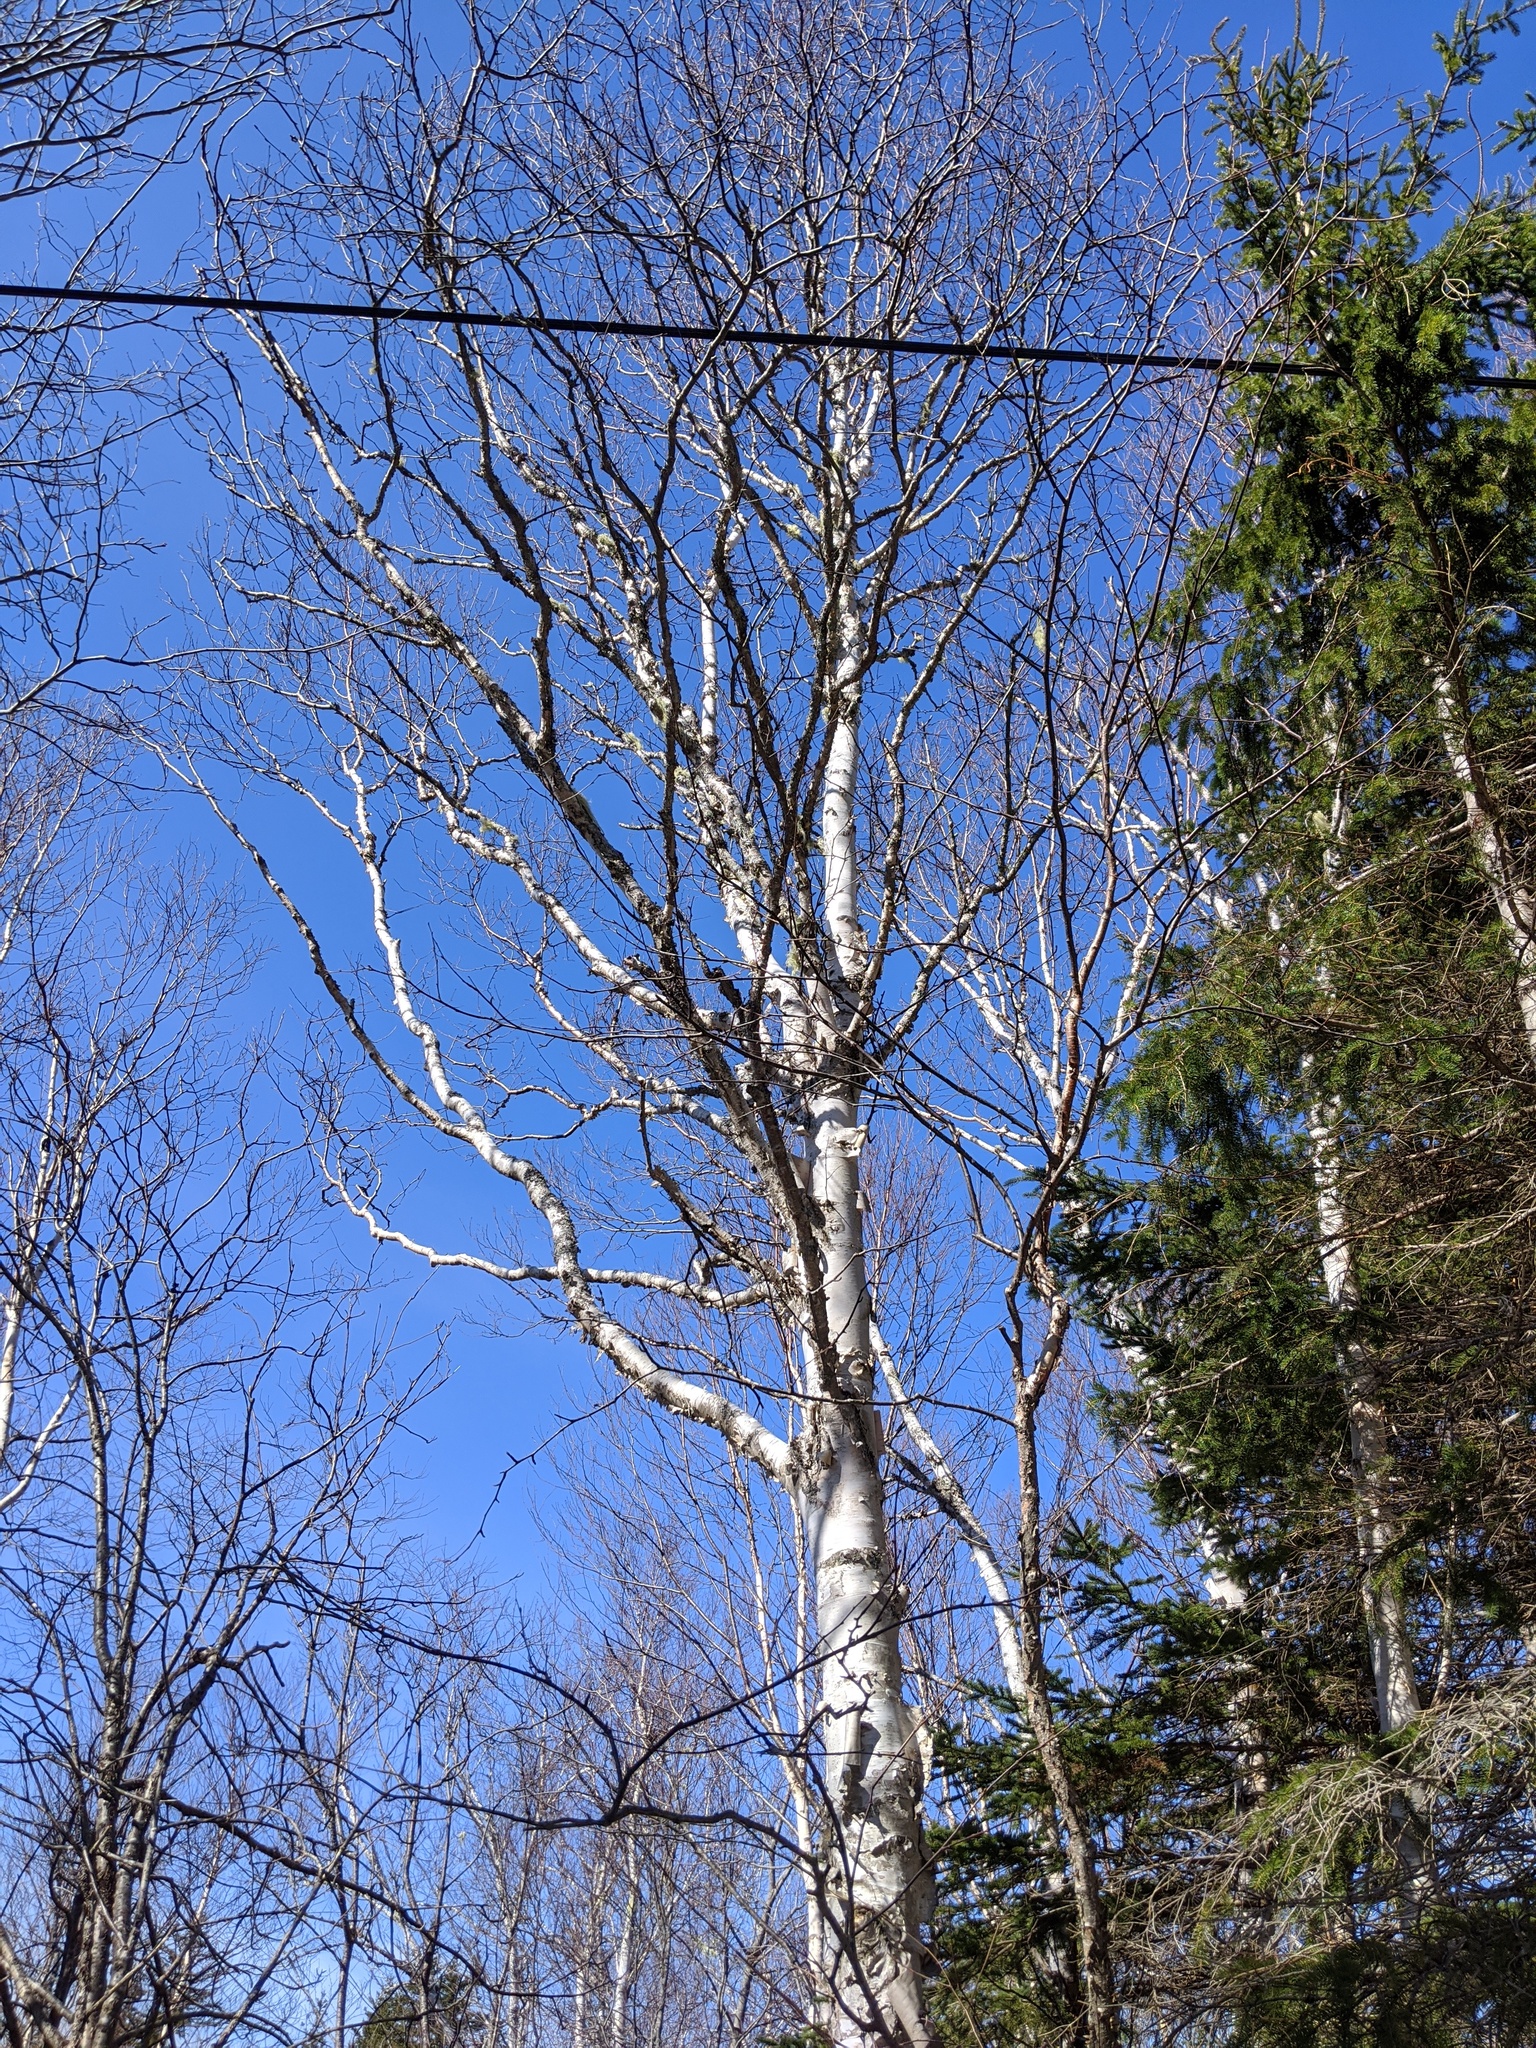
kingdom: Plantae
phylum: Tracheophyta
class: Magnoliopsida
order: Fagales
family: Betulaceae
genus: Betula
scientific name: Betula papyrifera
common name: Paper birch
